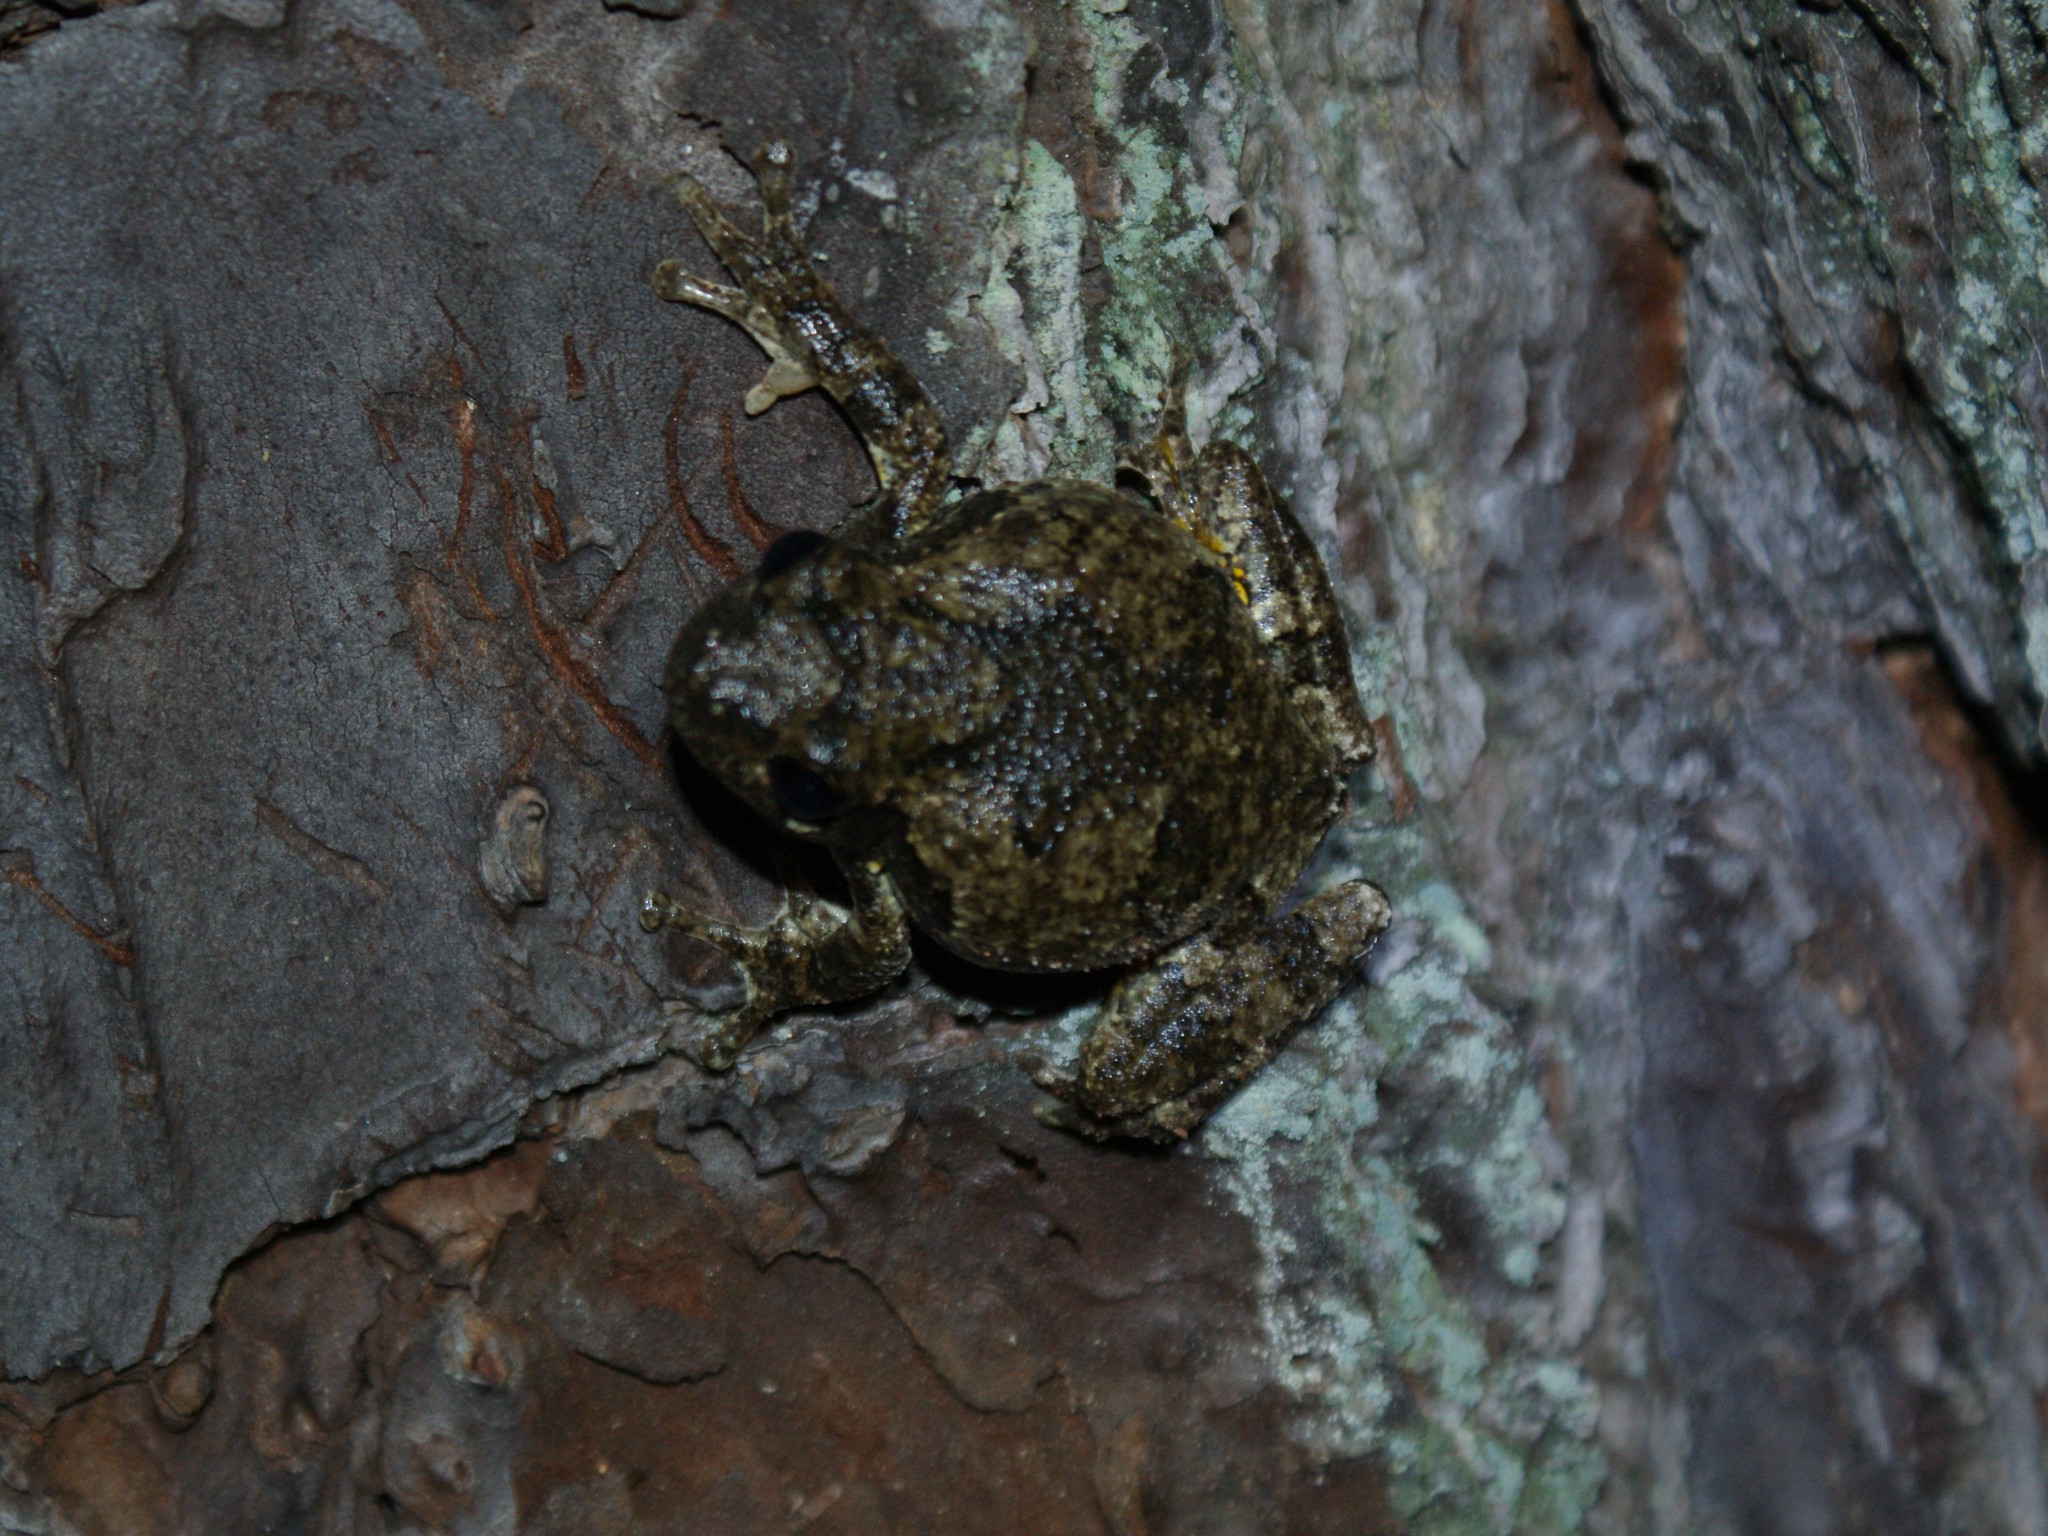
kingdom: Animalia
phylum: Chordata
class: Amphibia
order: Anura
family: Hylidae
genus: Dryophytes
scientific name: Dryophytes chrysoscelis
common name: Cope's gray treefrog
